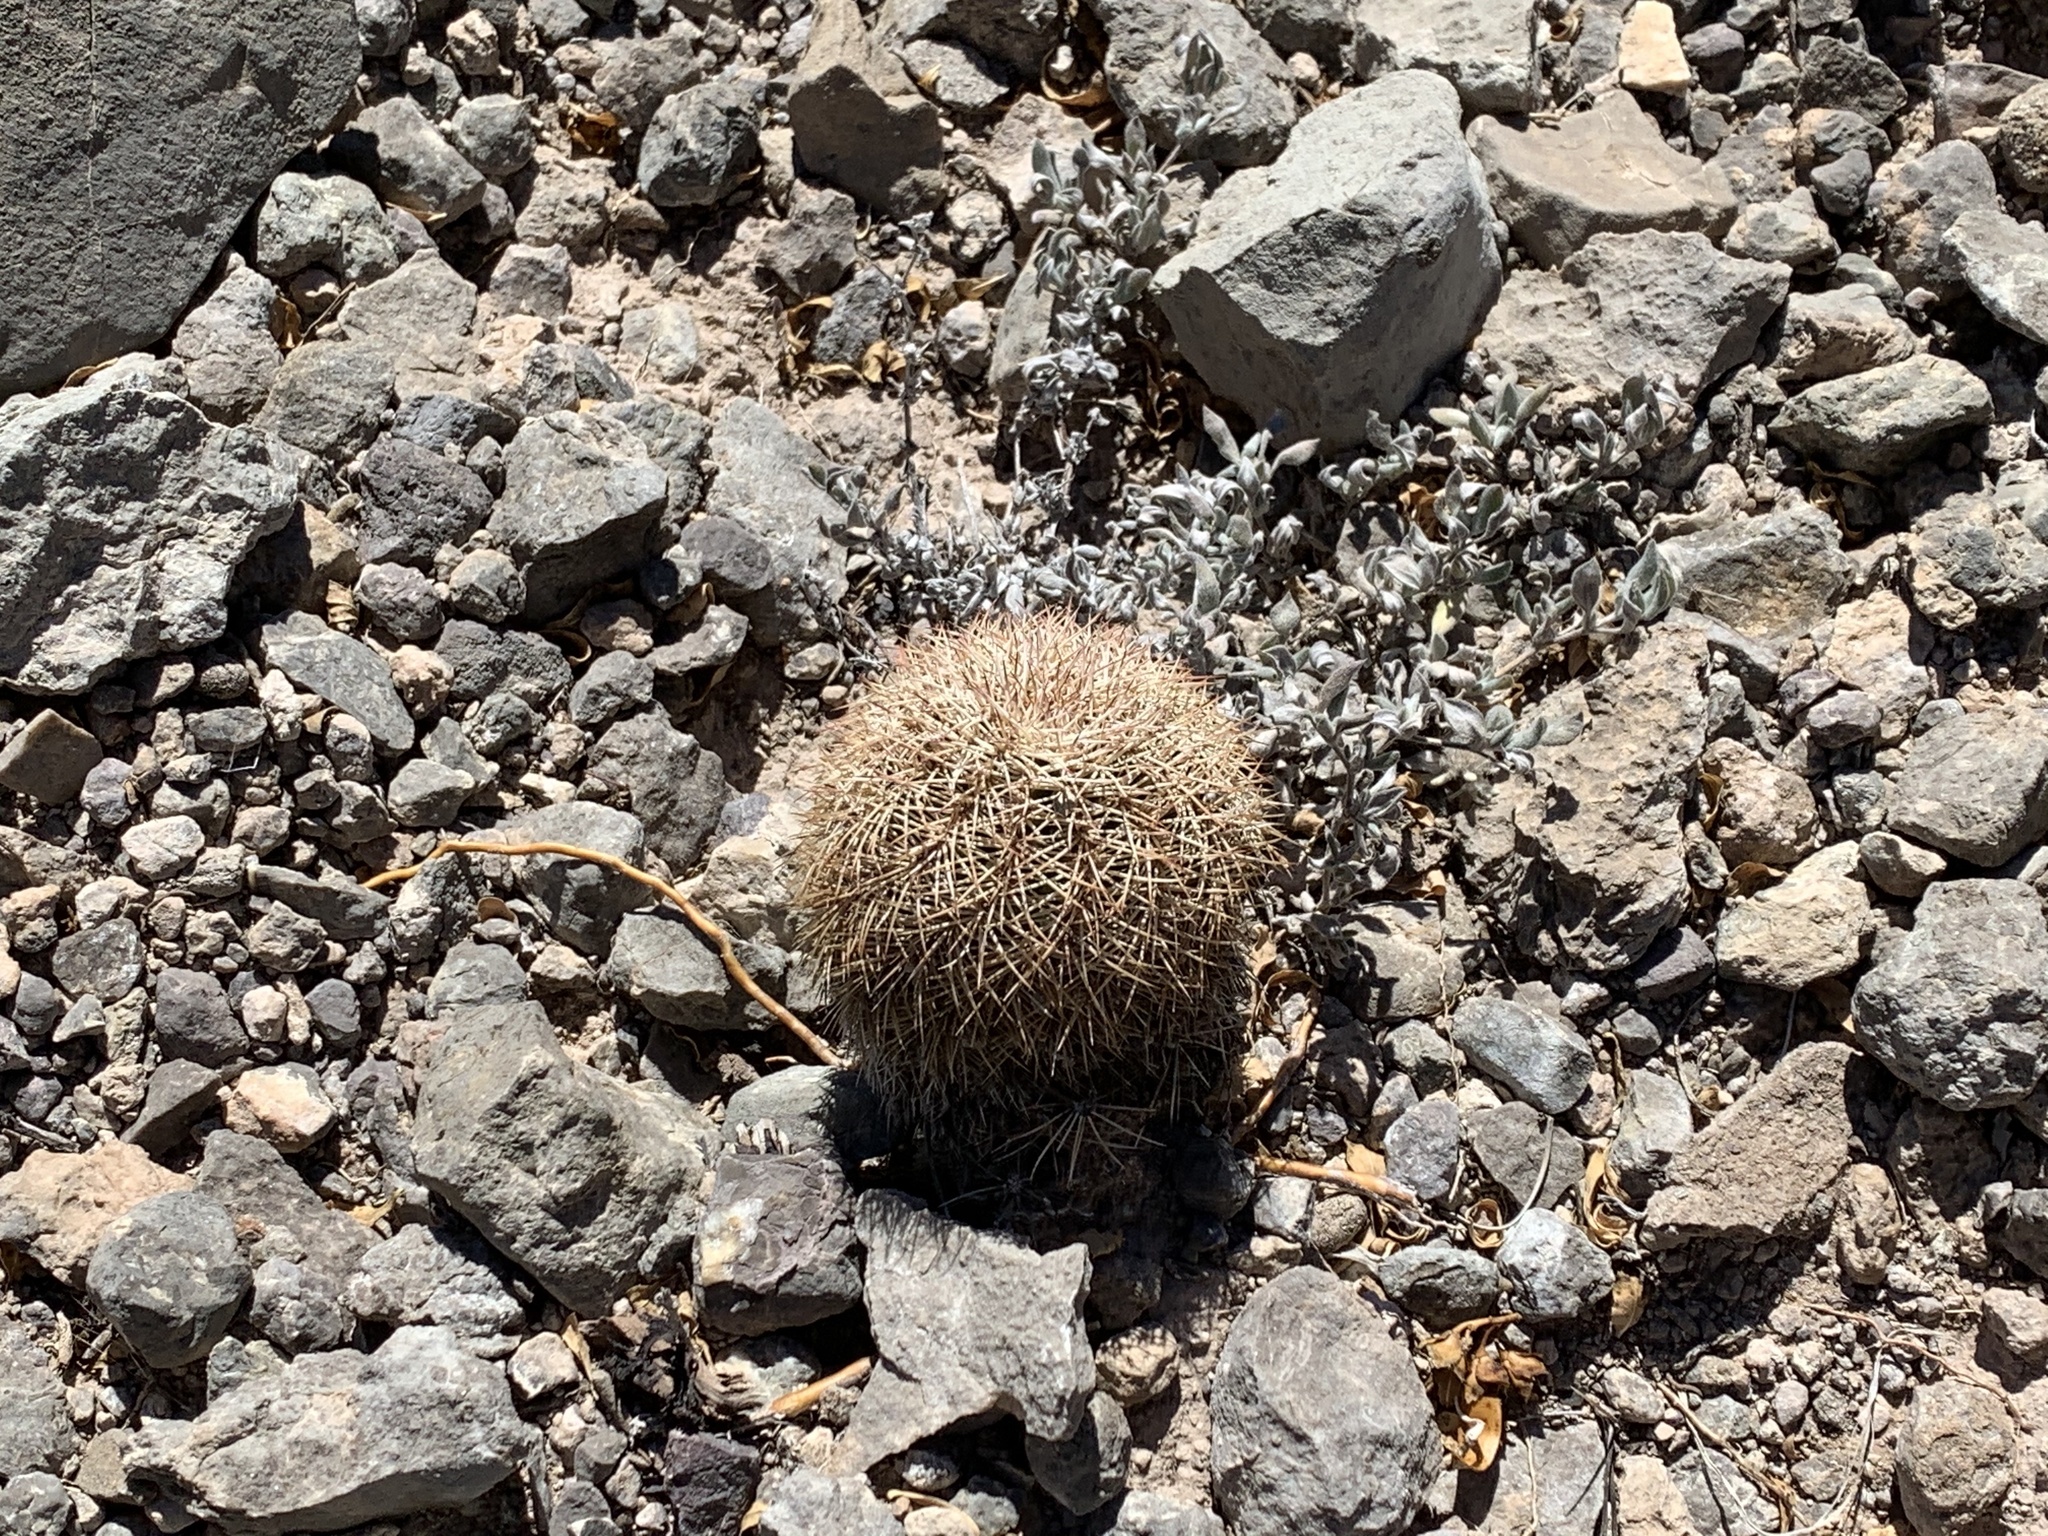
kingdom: Plantae
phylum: Tracheophyta
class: Magnoliopsida
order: Caryophyllales
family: Cactaceae
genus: Echinocereus
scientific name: Echinocereus dasyacanthus
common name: Spiny hedgehog cactus
